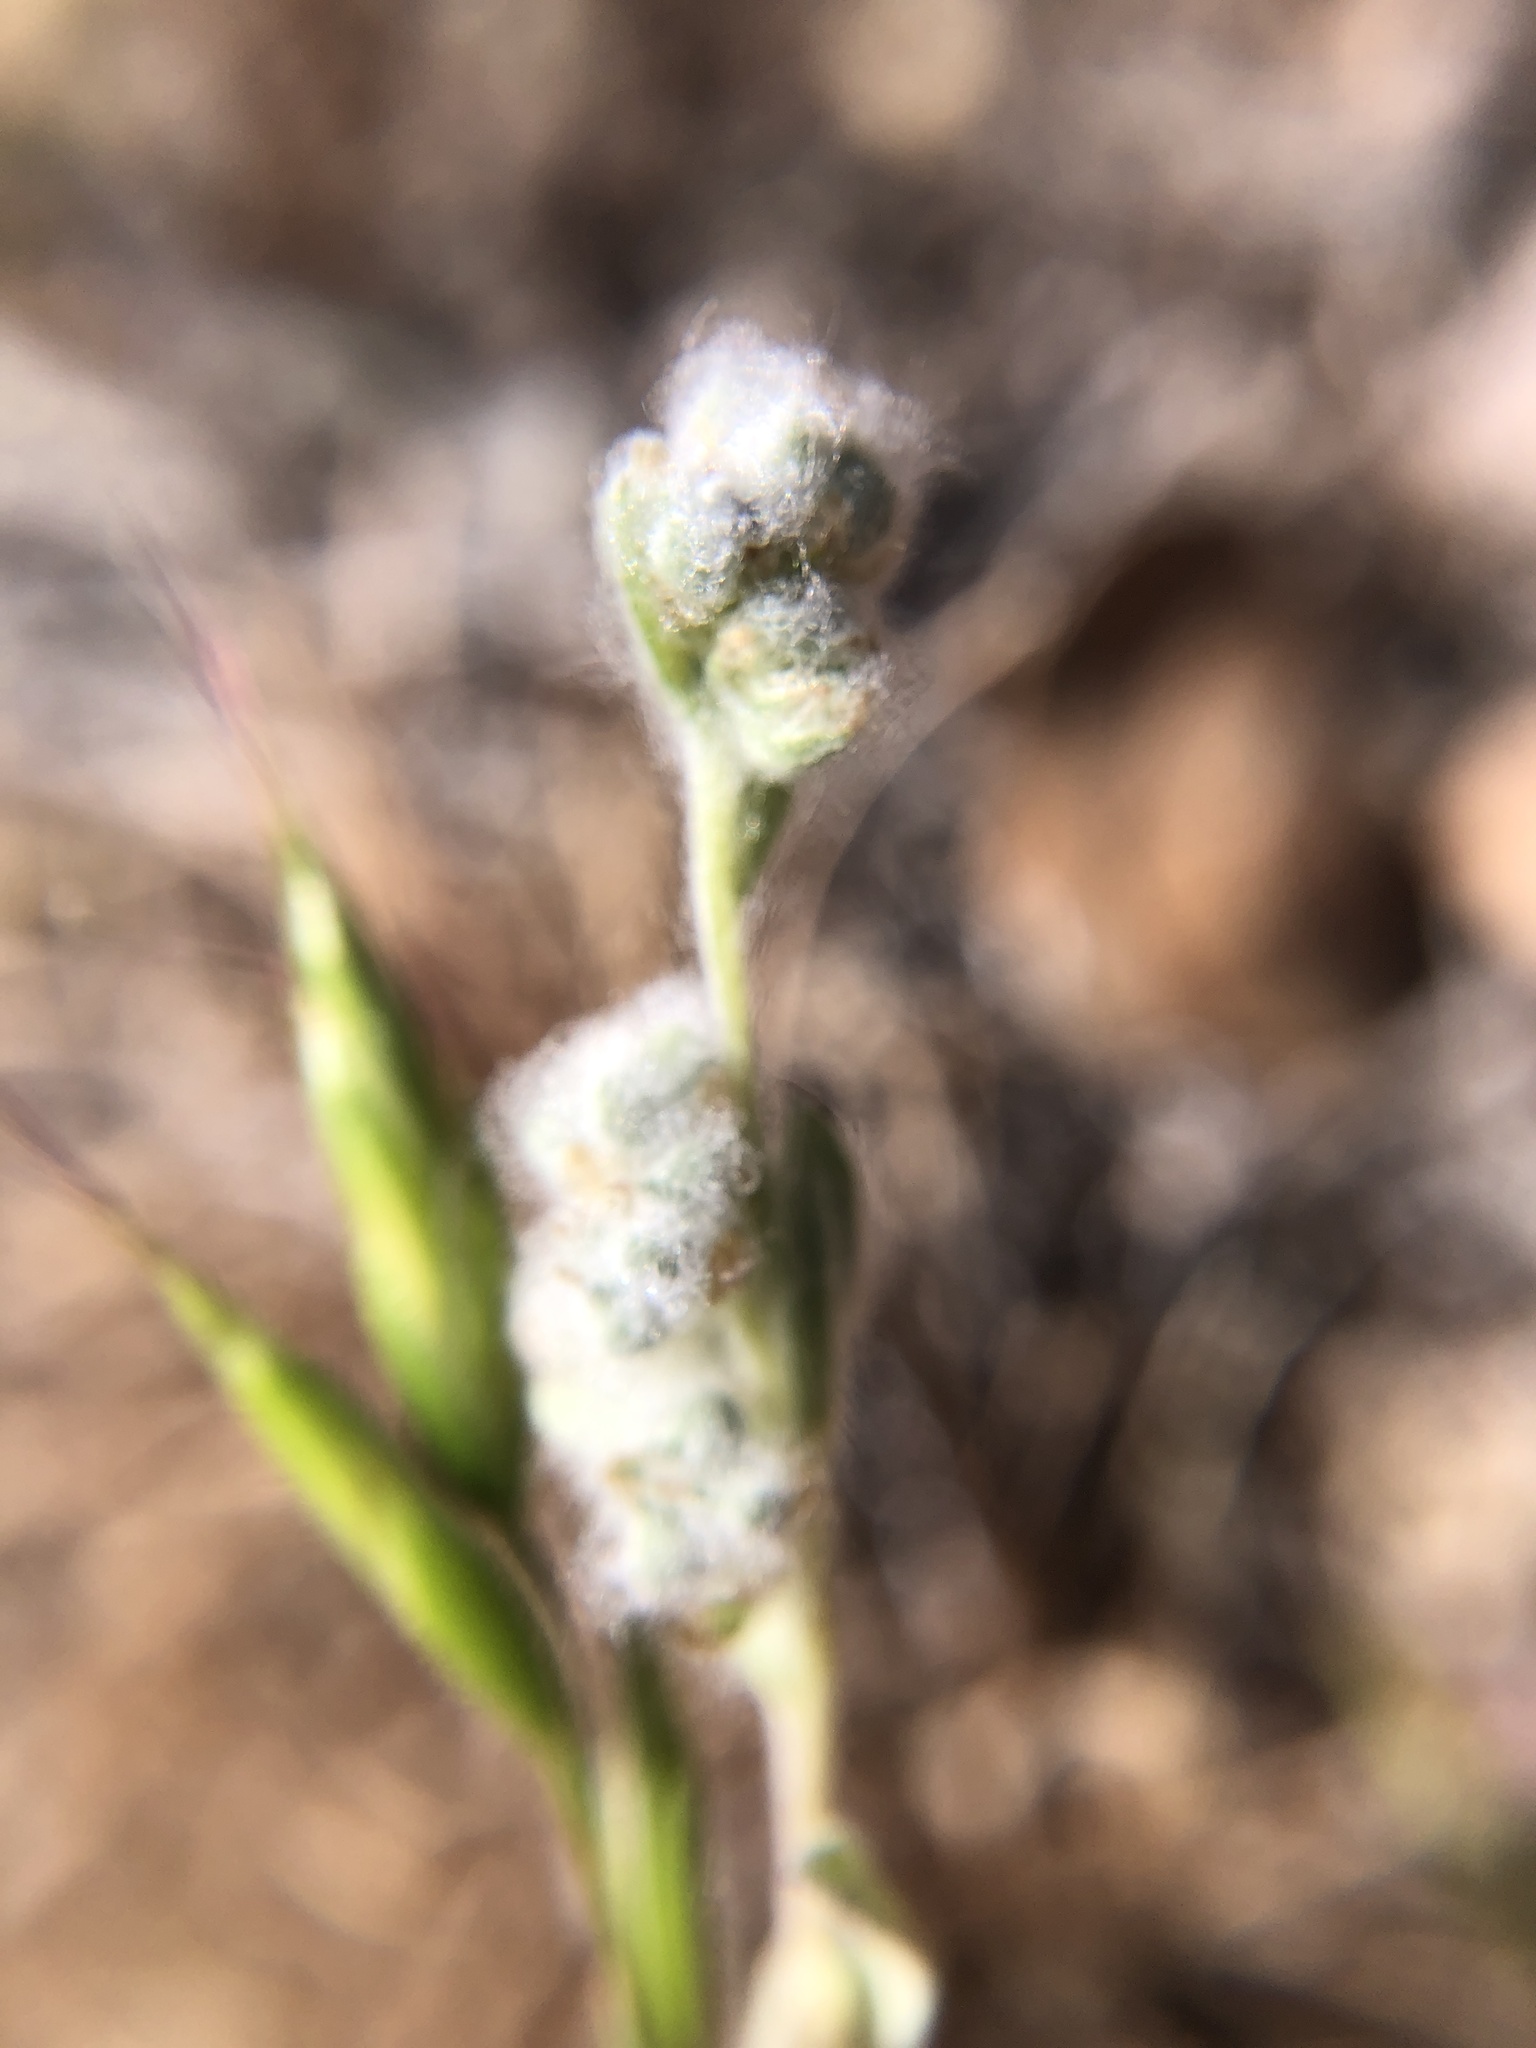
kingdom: Plantae
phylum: Tracheophyta
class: Magnoliopsida
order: Asterales
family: Asteraceae
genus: Bombycilaena
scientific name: Bombycilaena californica
